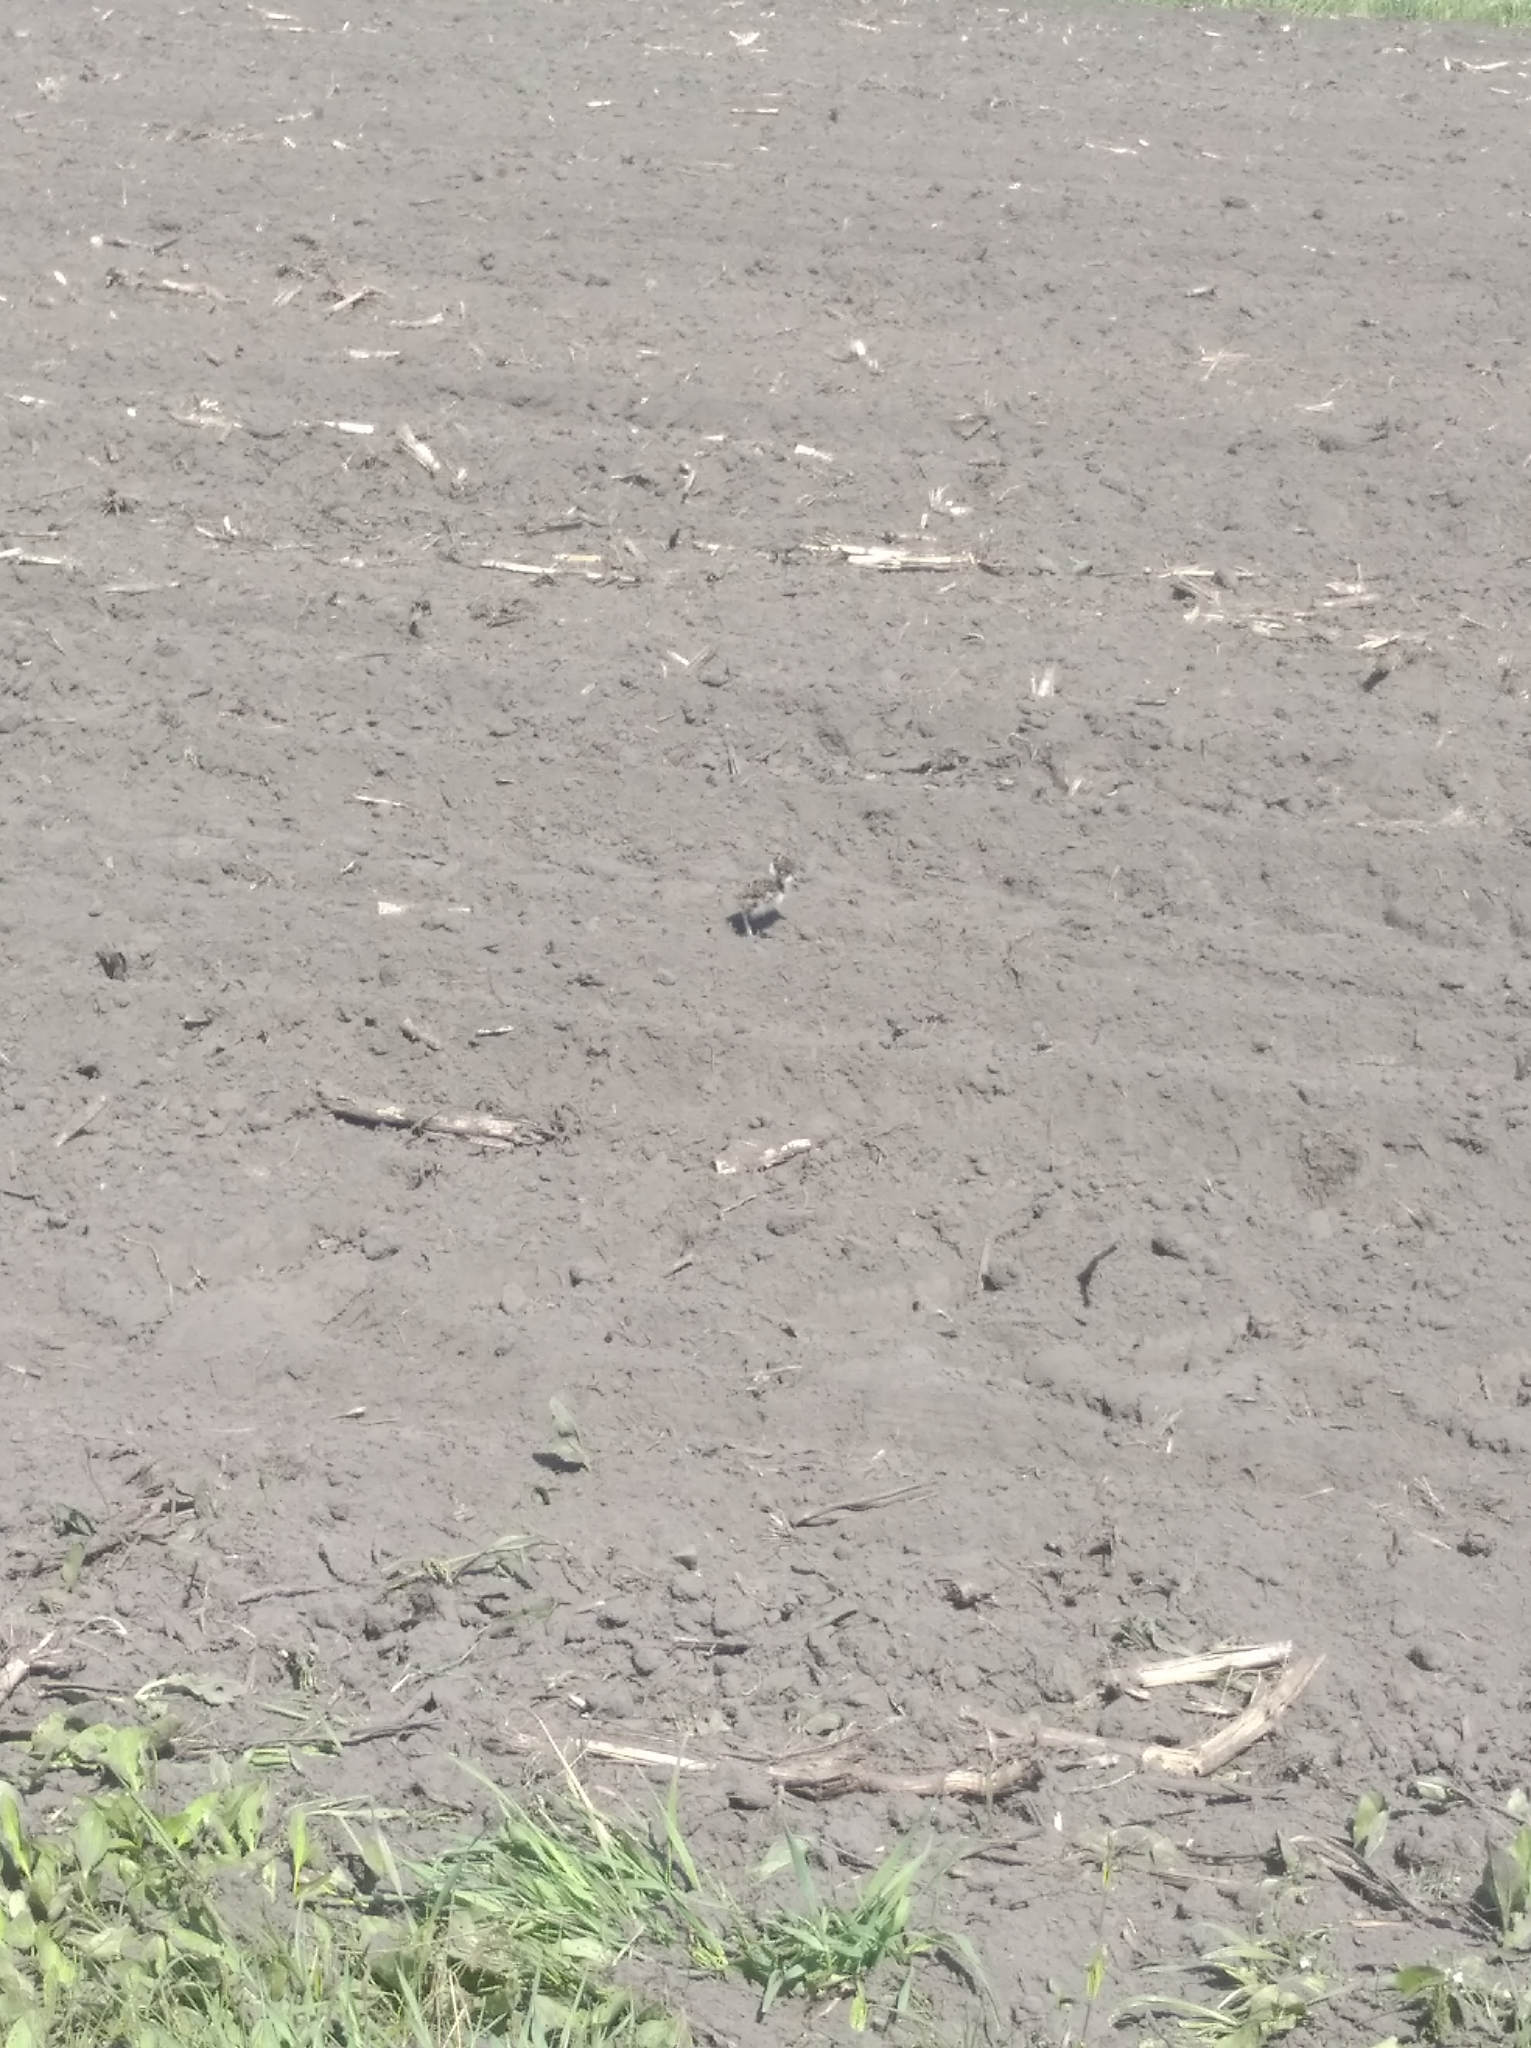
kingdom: Animalia
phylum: Chordata
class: Aves
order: Charadriiformes
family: Charadriidae
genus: Vanellus
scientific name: Vanellus vanellus
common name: Northern lapwing
